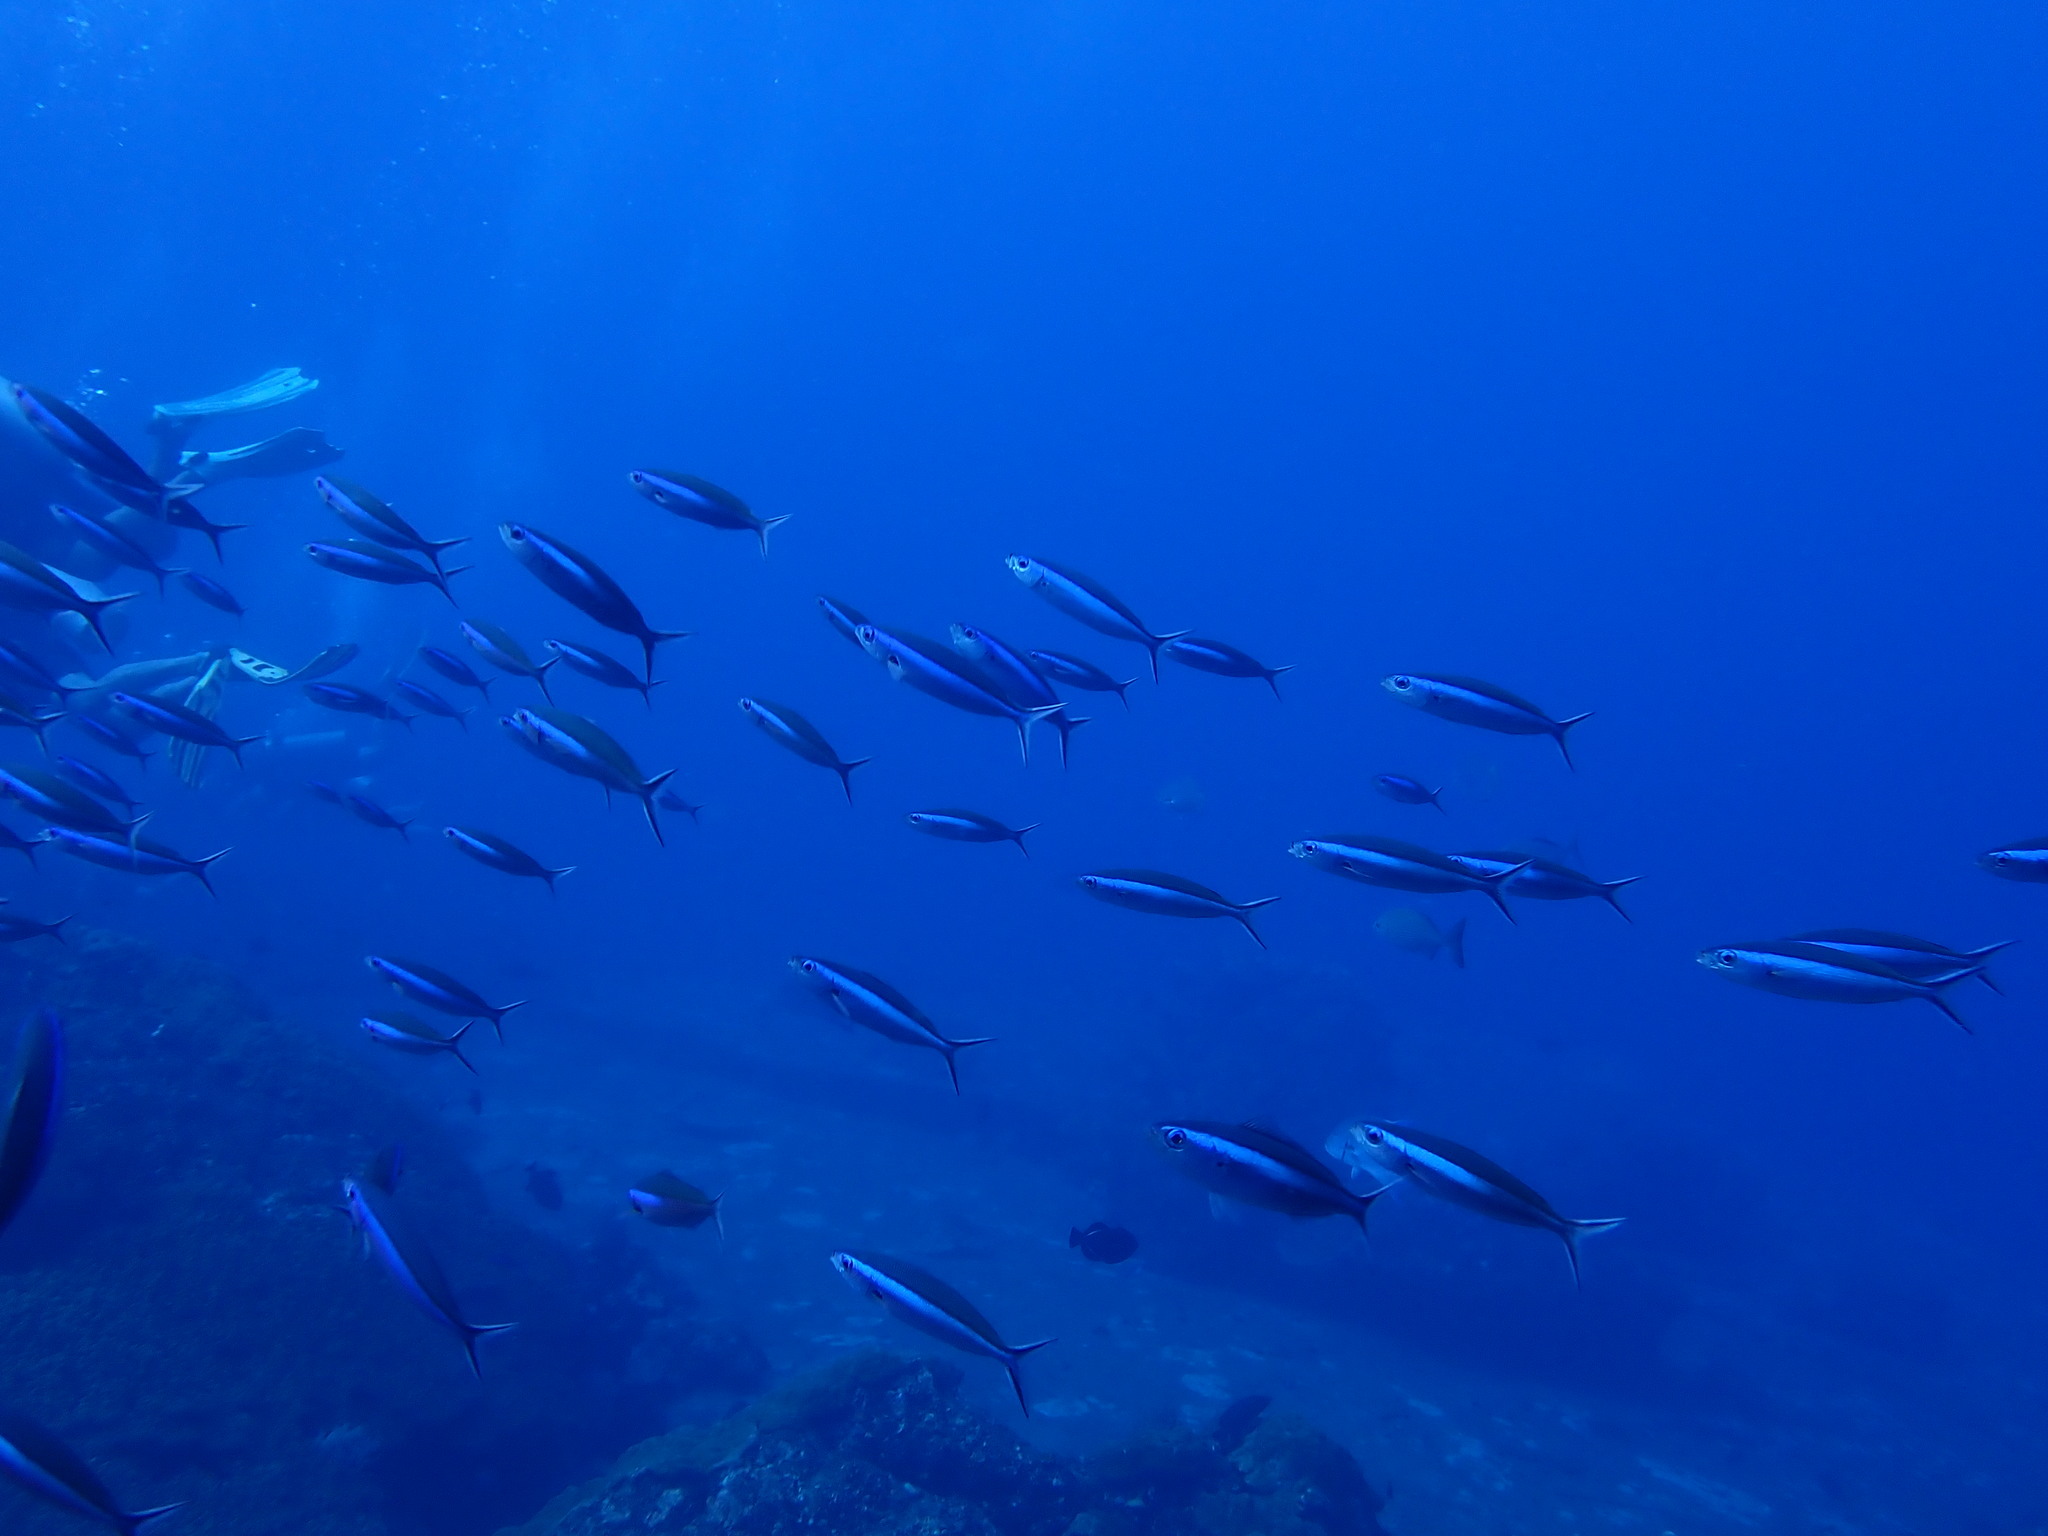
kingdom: Animalia
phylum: Chordata
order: Perciformes
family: Caesionidae
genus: Pterocaesio
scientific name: Pterocaesio tile
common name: Dark-banded fusilier
